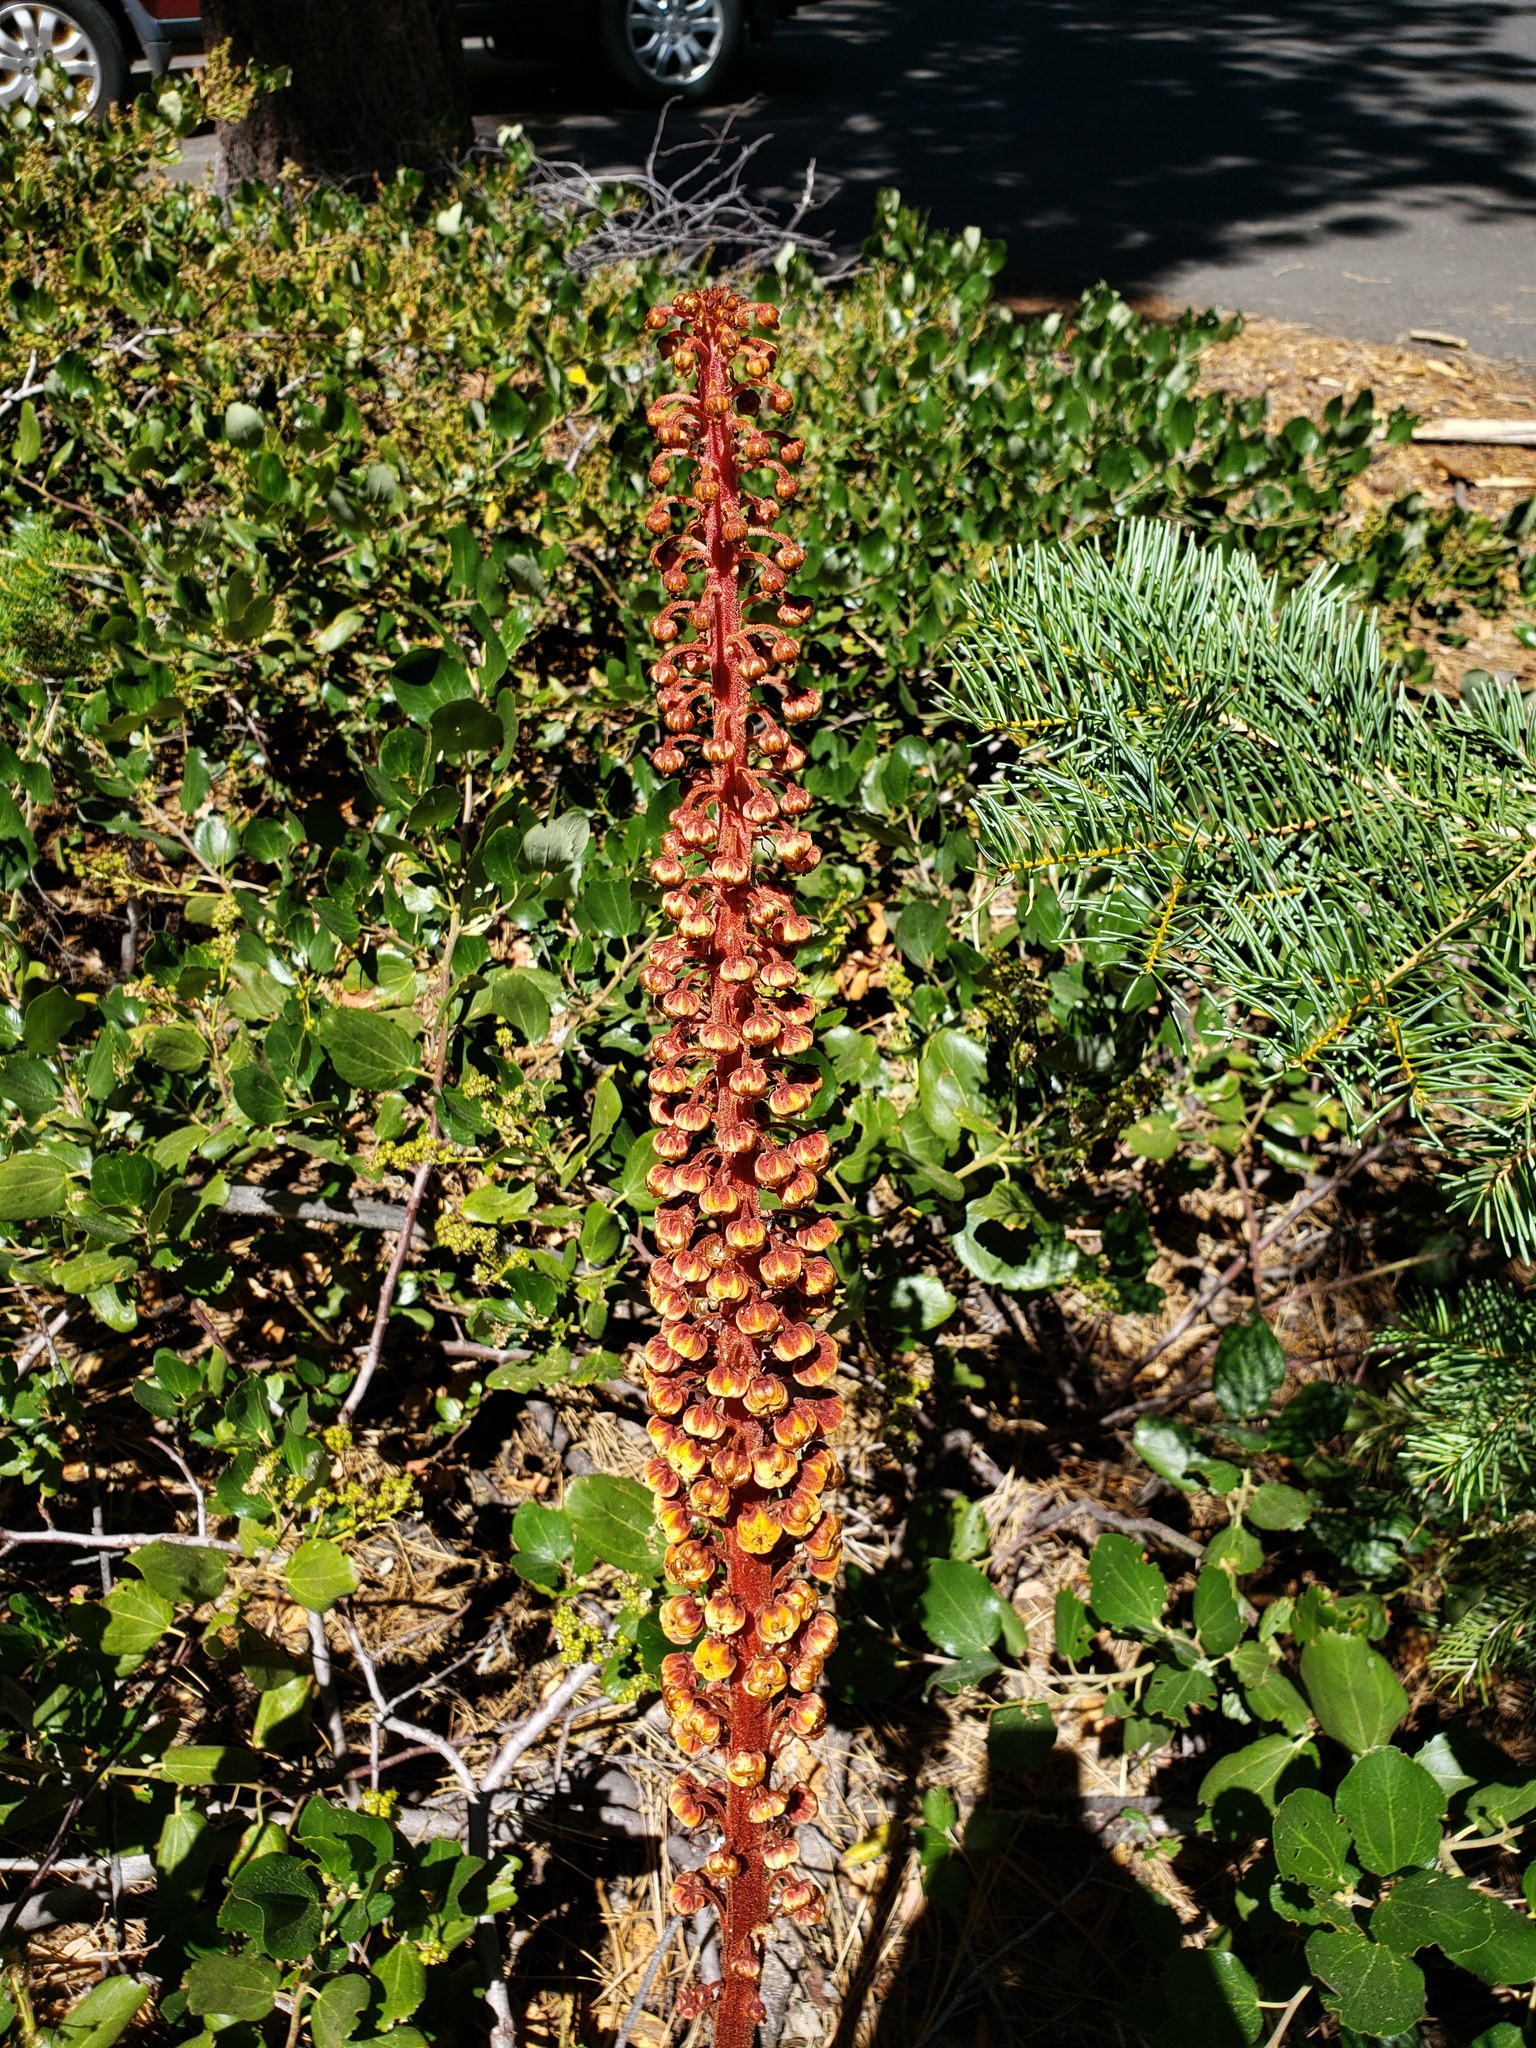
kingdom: Plantae
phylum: Tracheophyta
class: Magnoliopsida
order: Ericales
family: Ericaceae
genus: Pterospora
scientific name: Pterospora andromedea
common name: Giant bird's-nest
